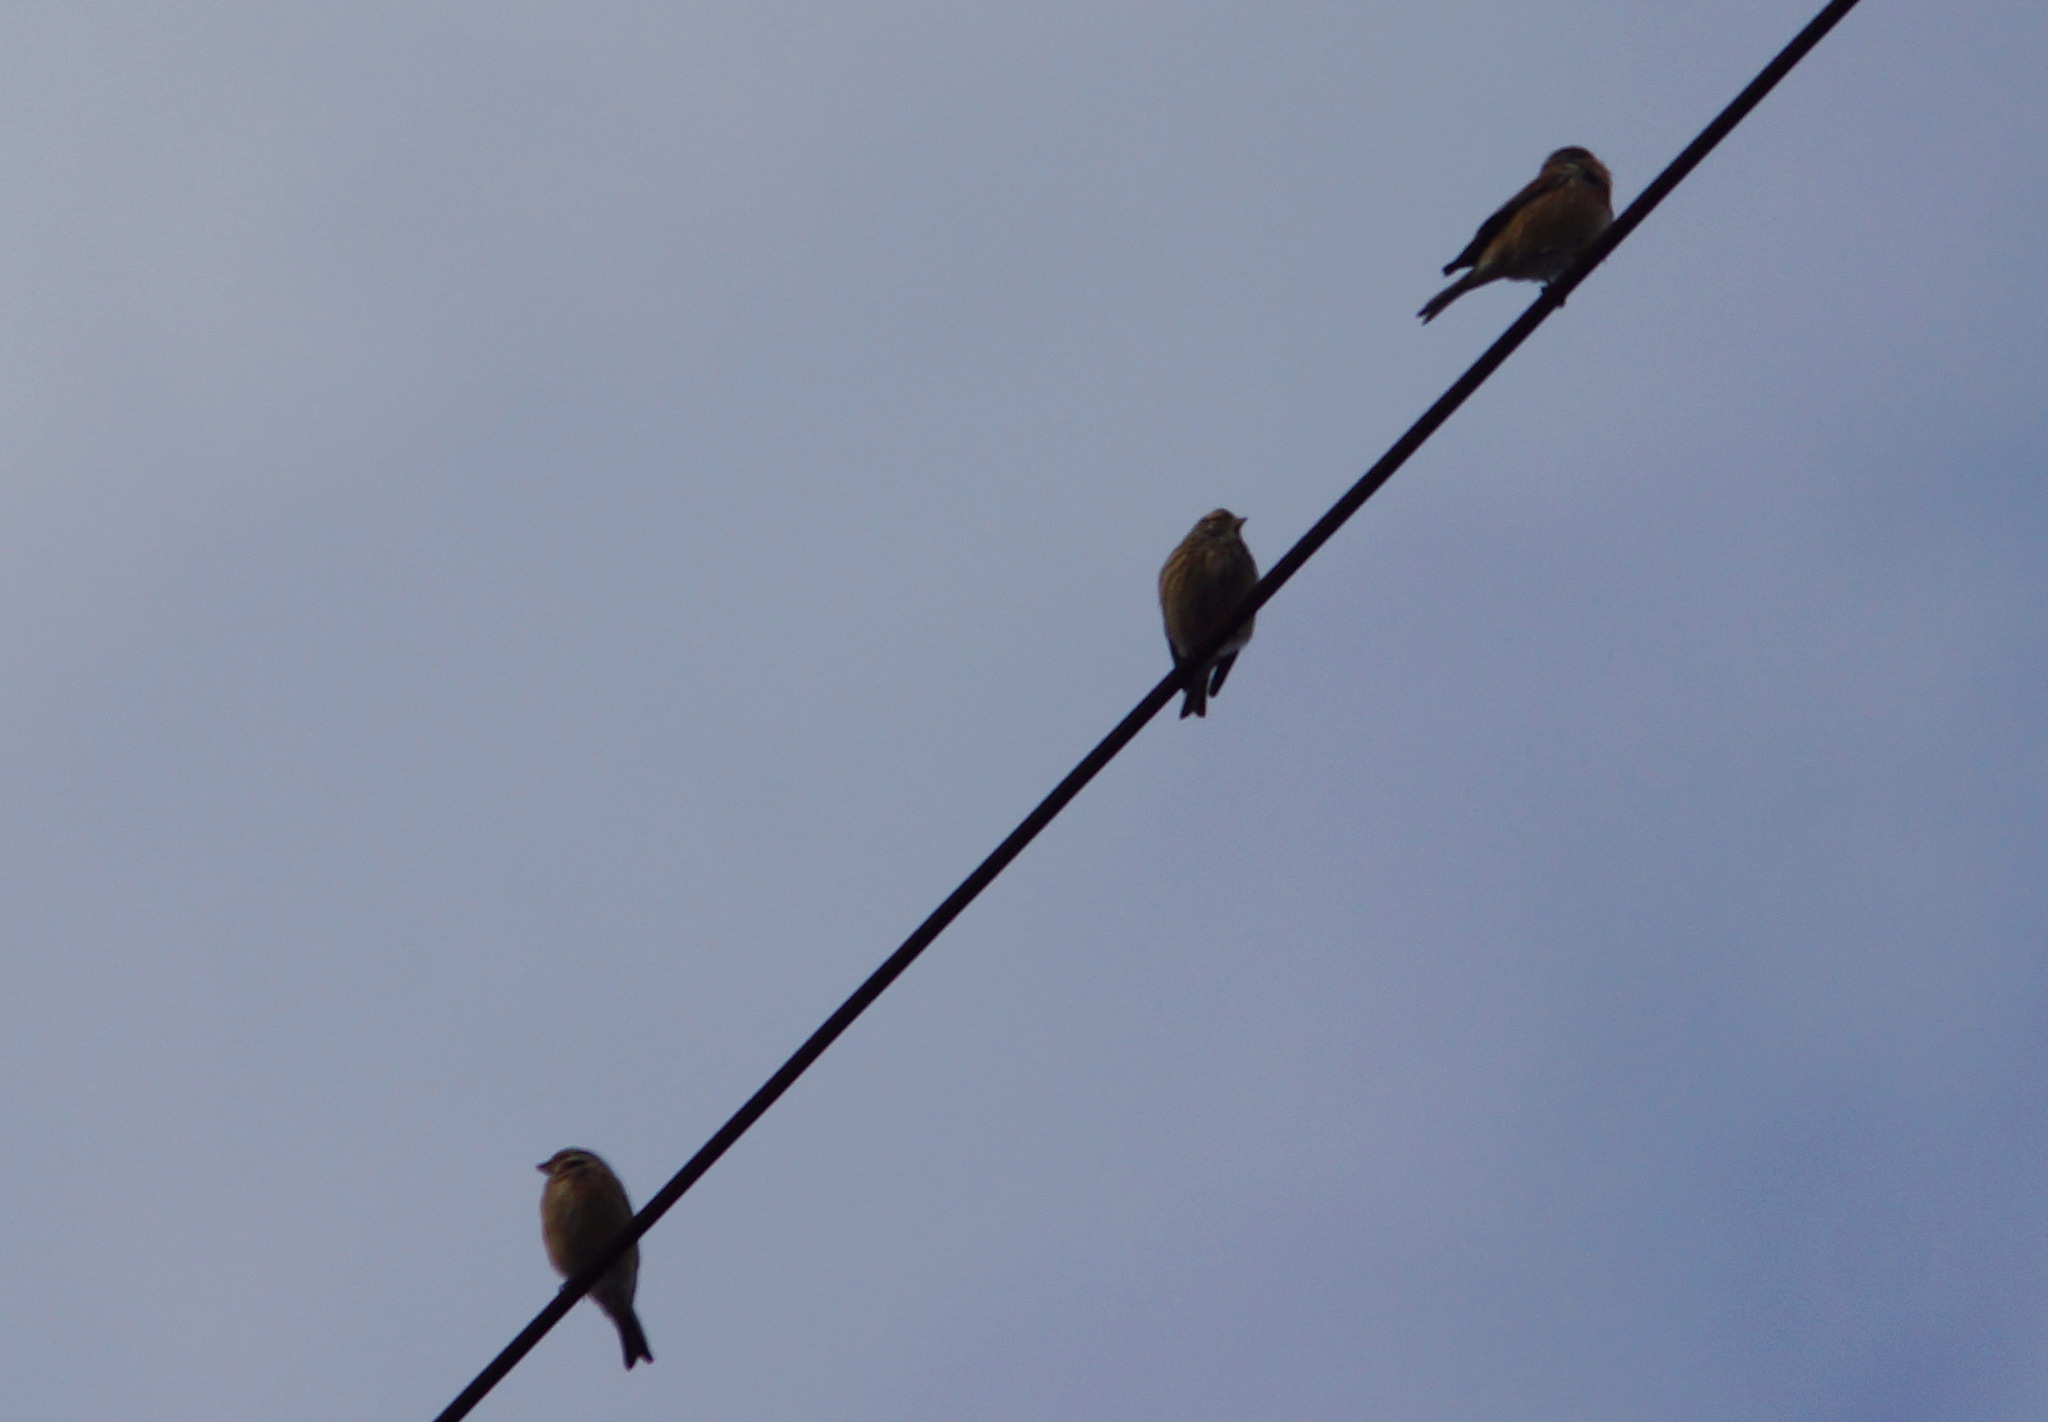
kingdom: Animalia
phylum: Chordata
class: Aves
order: Passeriformes
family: Fringillidae
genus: Linaria
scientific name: Linaria cannabina
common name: Common linnet
